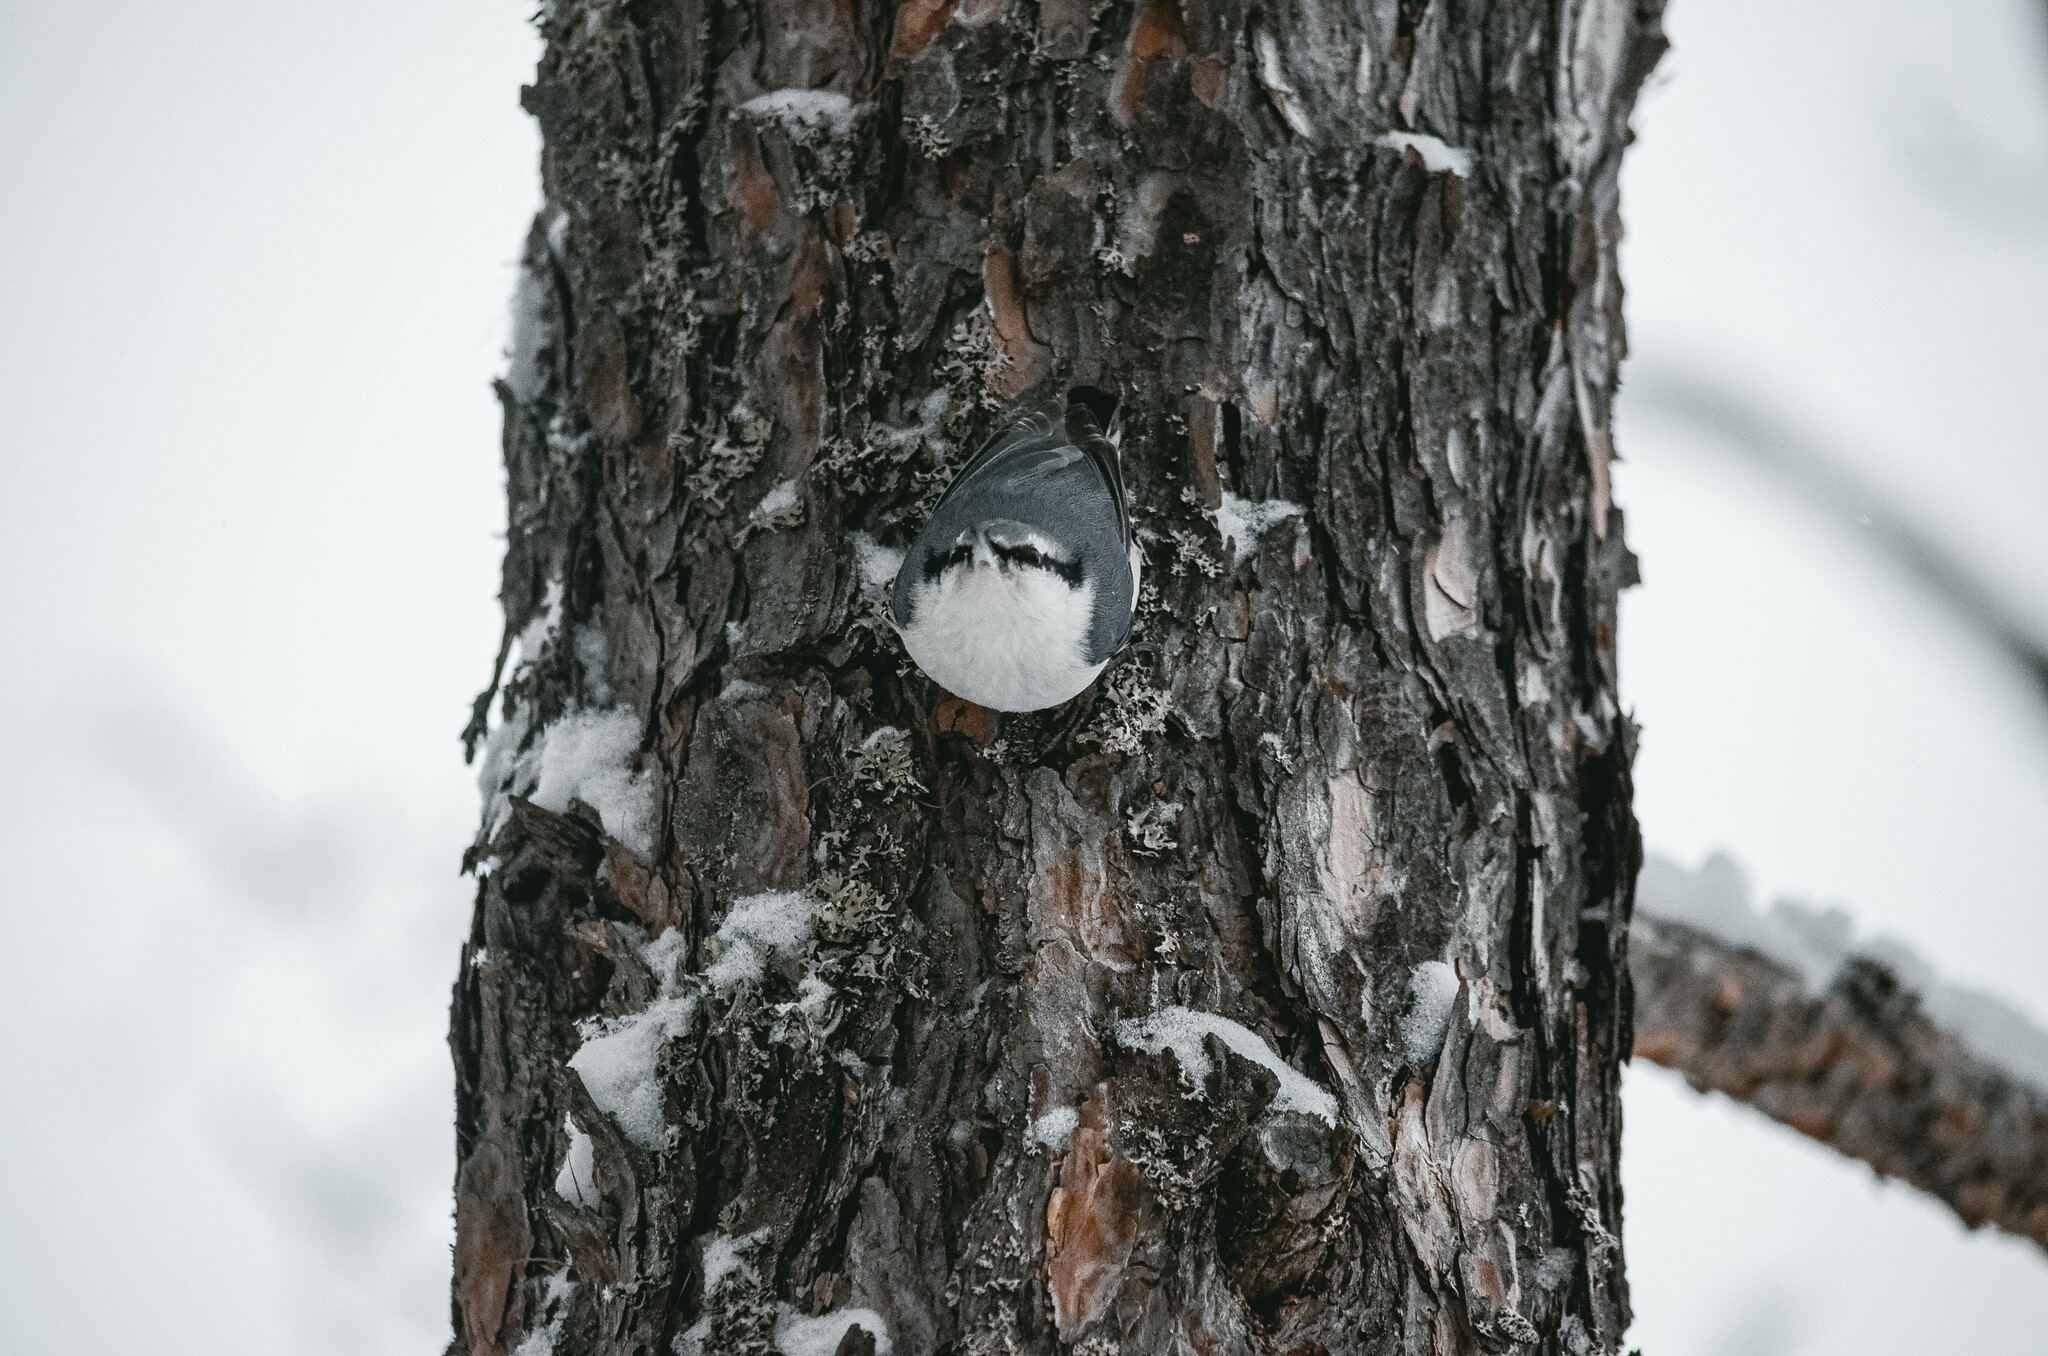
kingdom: Animalia
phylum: Chordata
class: Aves
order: Passeriformes
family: Sittidae
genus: Sitta
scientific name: Sitta europaea
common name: Eurasian nuthatch
